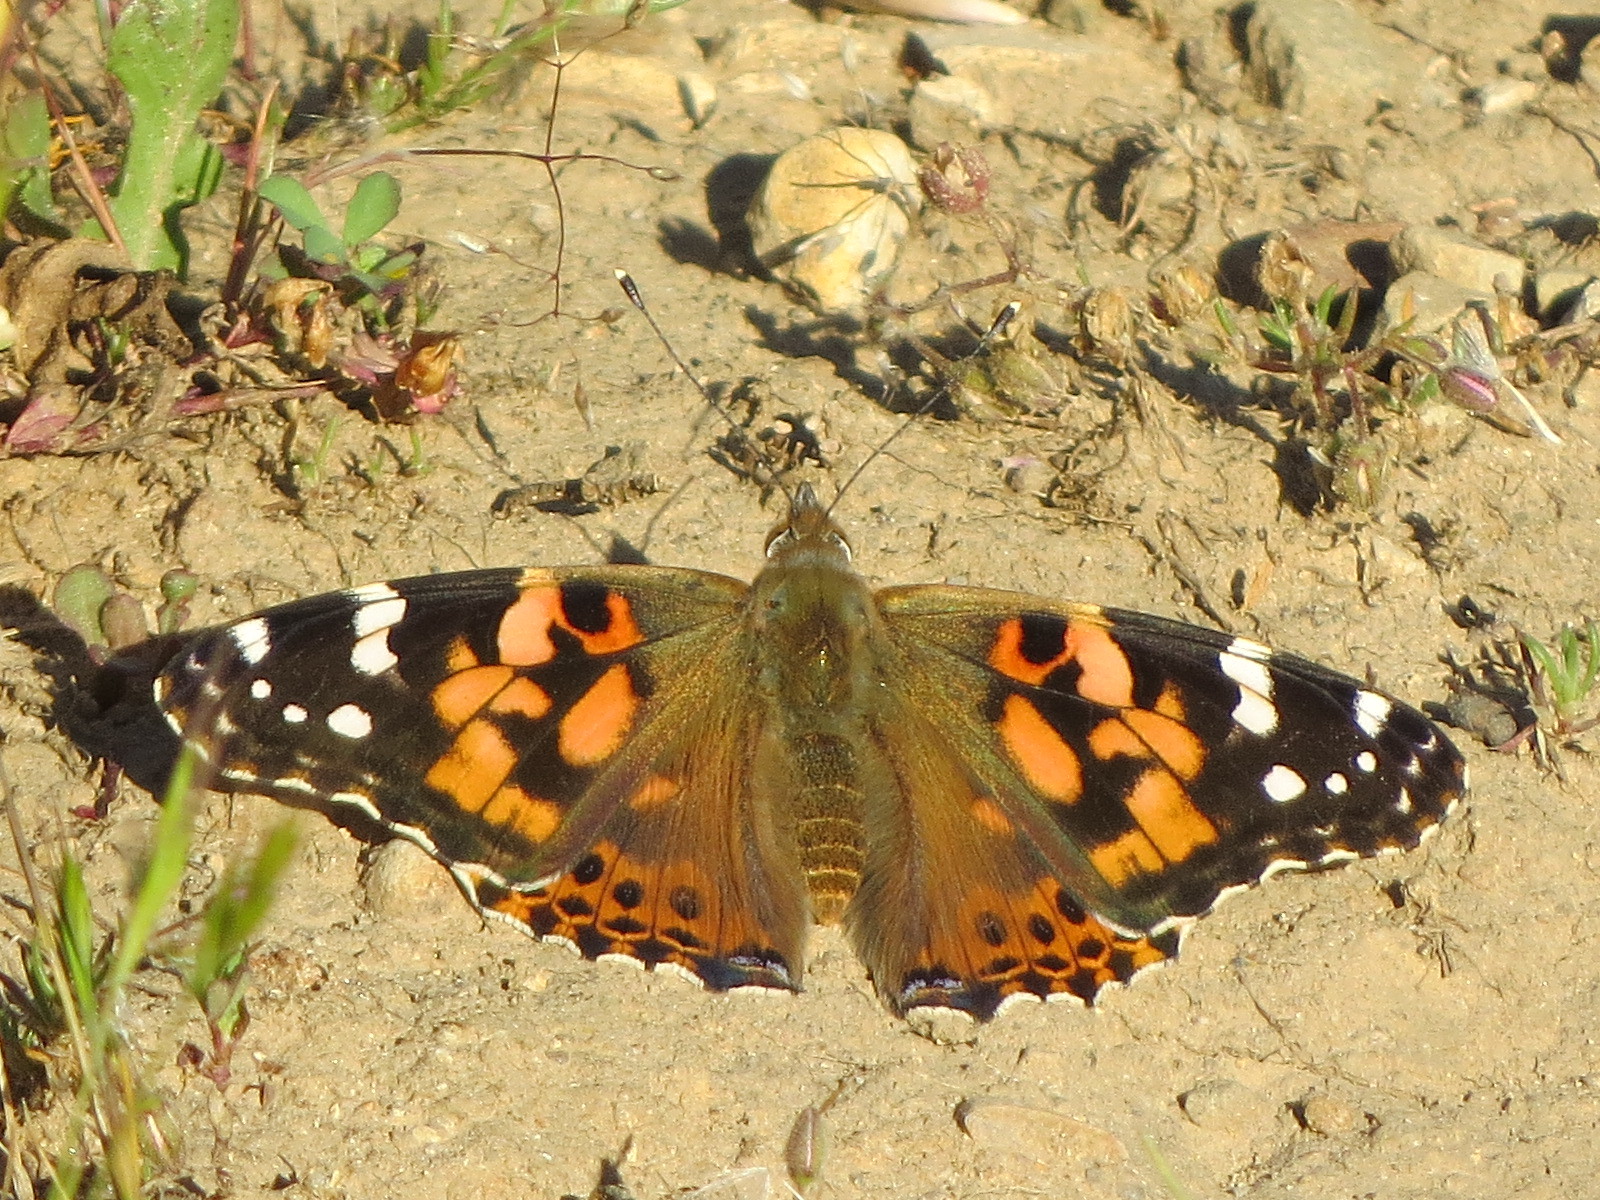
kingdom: Animalia
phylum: Arthropoda
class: Insecta
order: Lepidoptera
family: Nymphalidae
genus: Vanessa
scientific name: Vanessa cardui
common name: Painted lady
